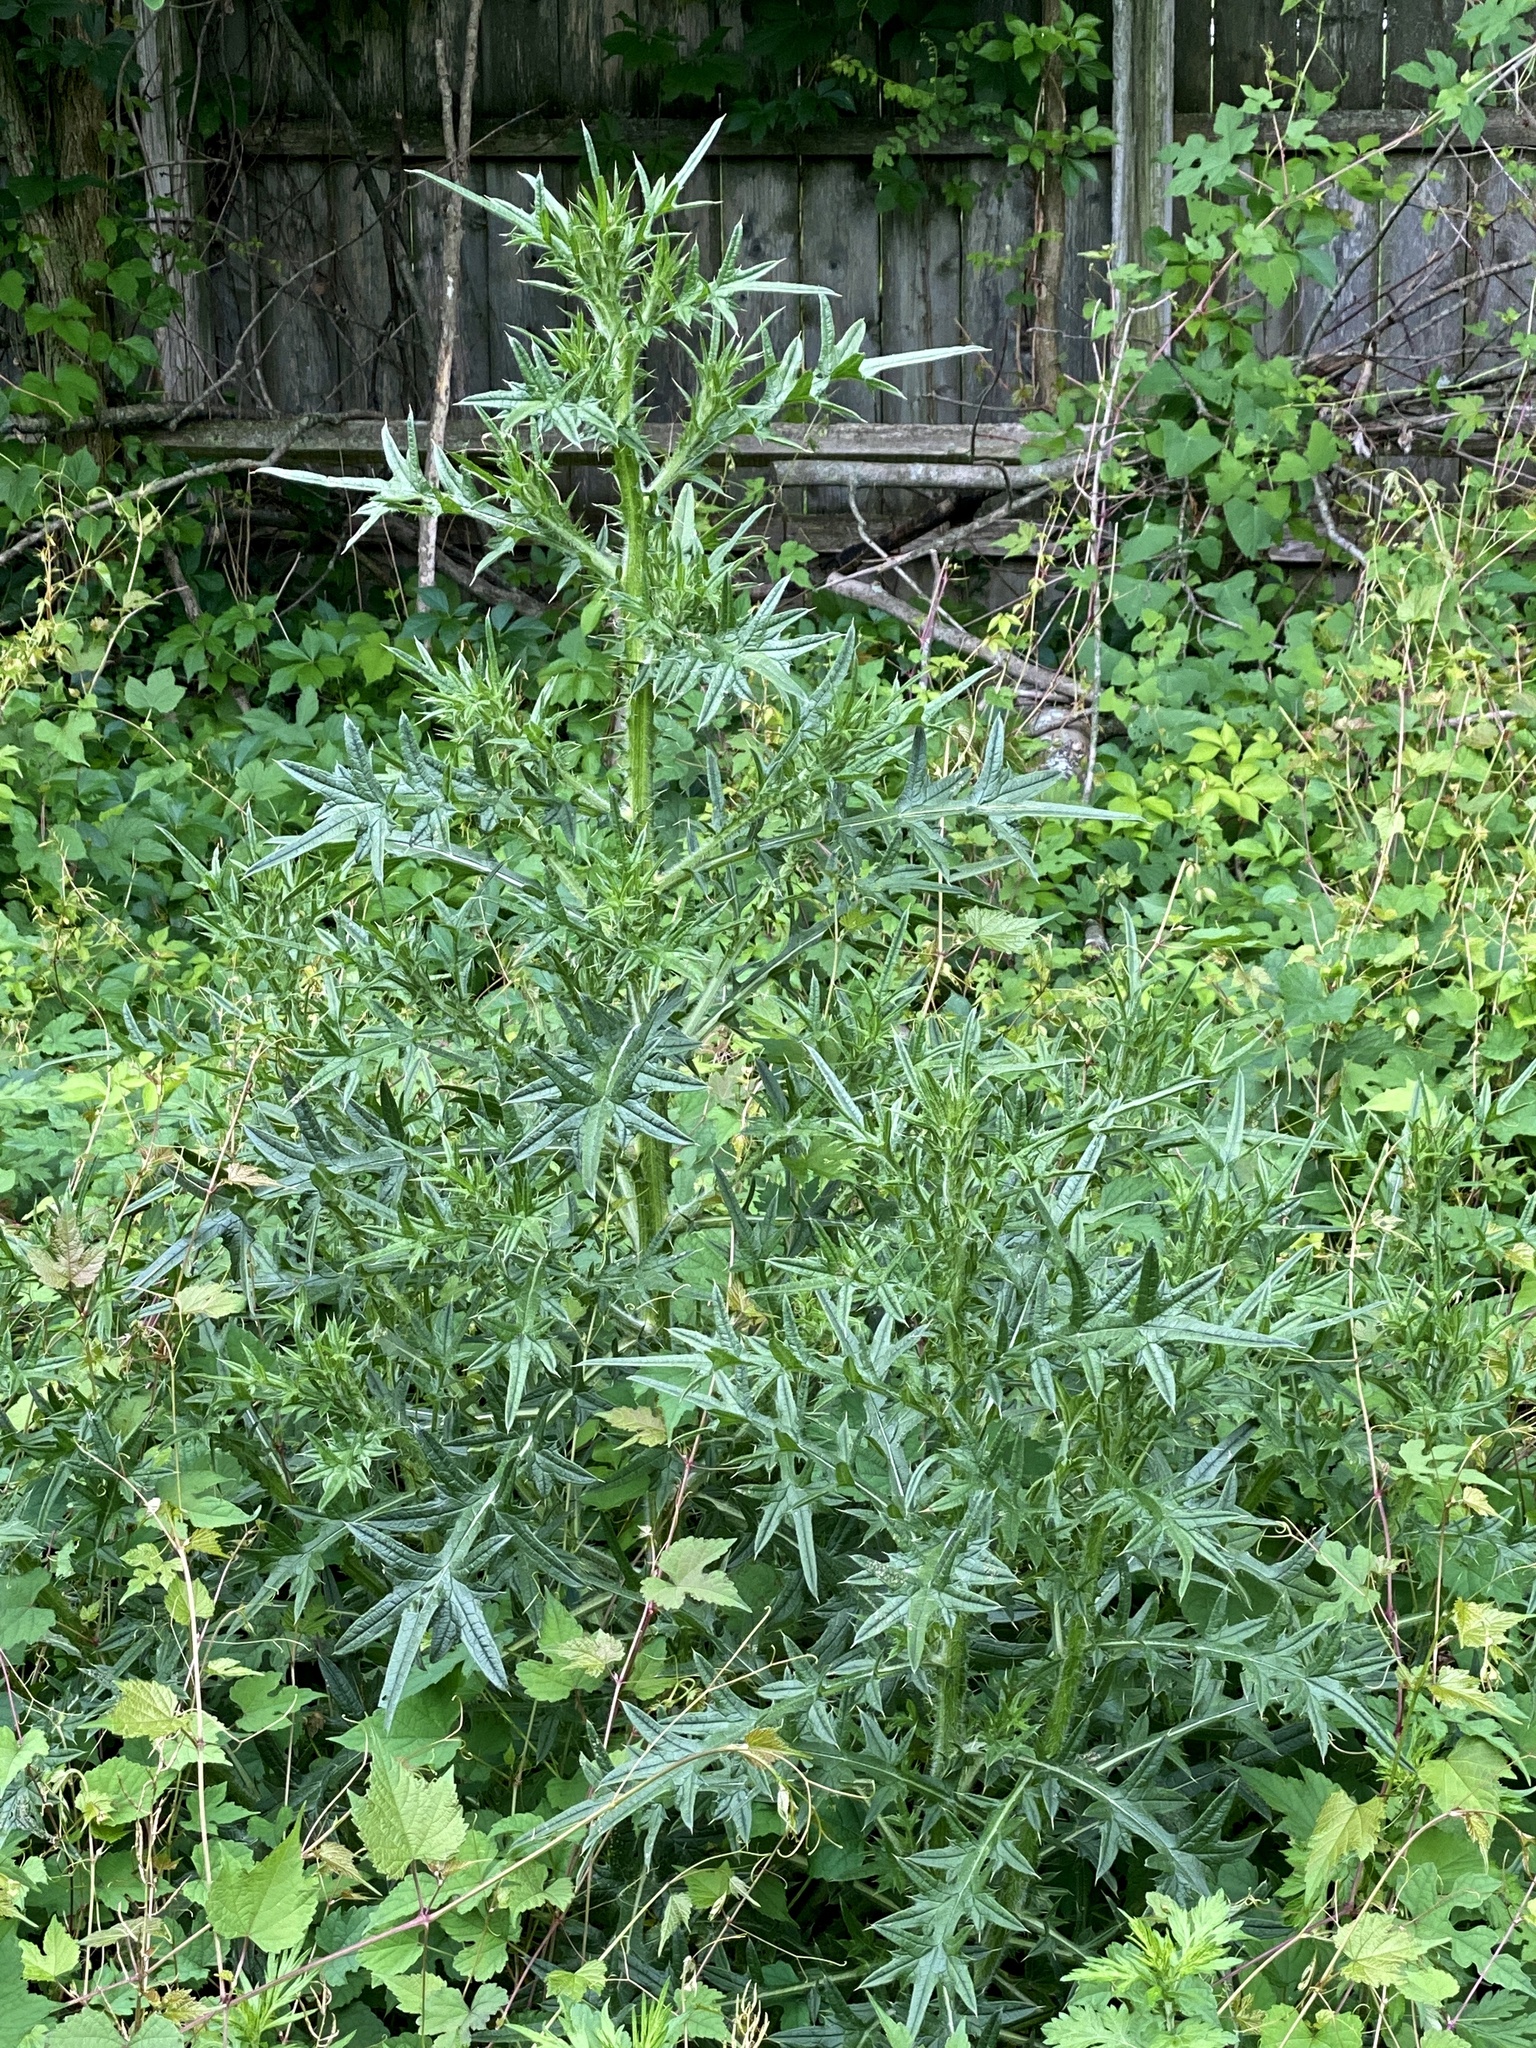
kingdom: Plantae
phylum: Tracheophyta
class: Magnoliopsida
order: Asterales
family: Asteraceae
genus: Cirsium
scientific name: Cirsium vulgare
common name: Bull thistle
